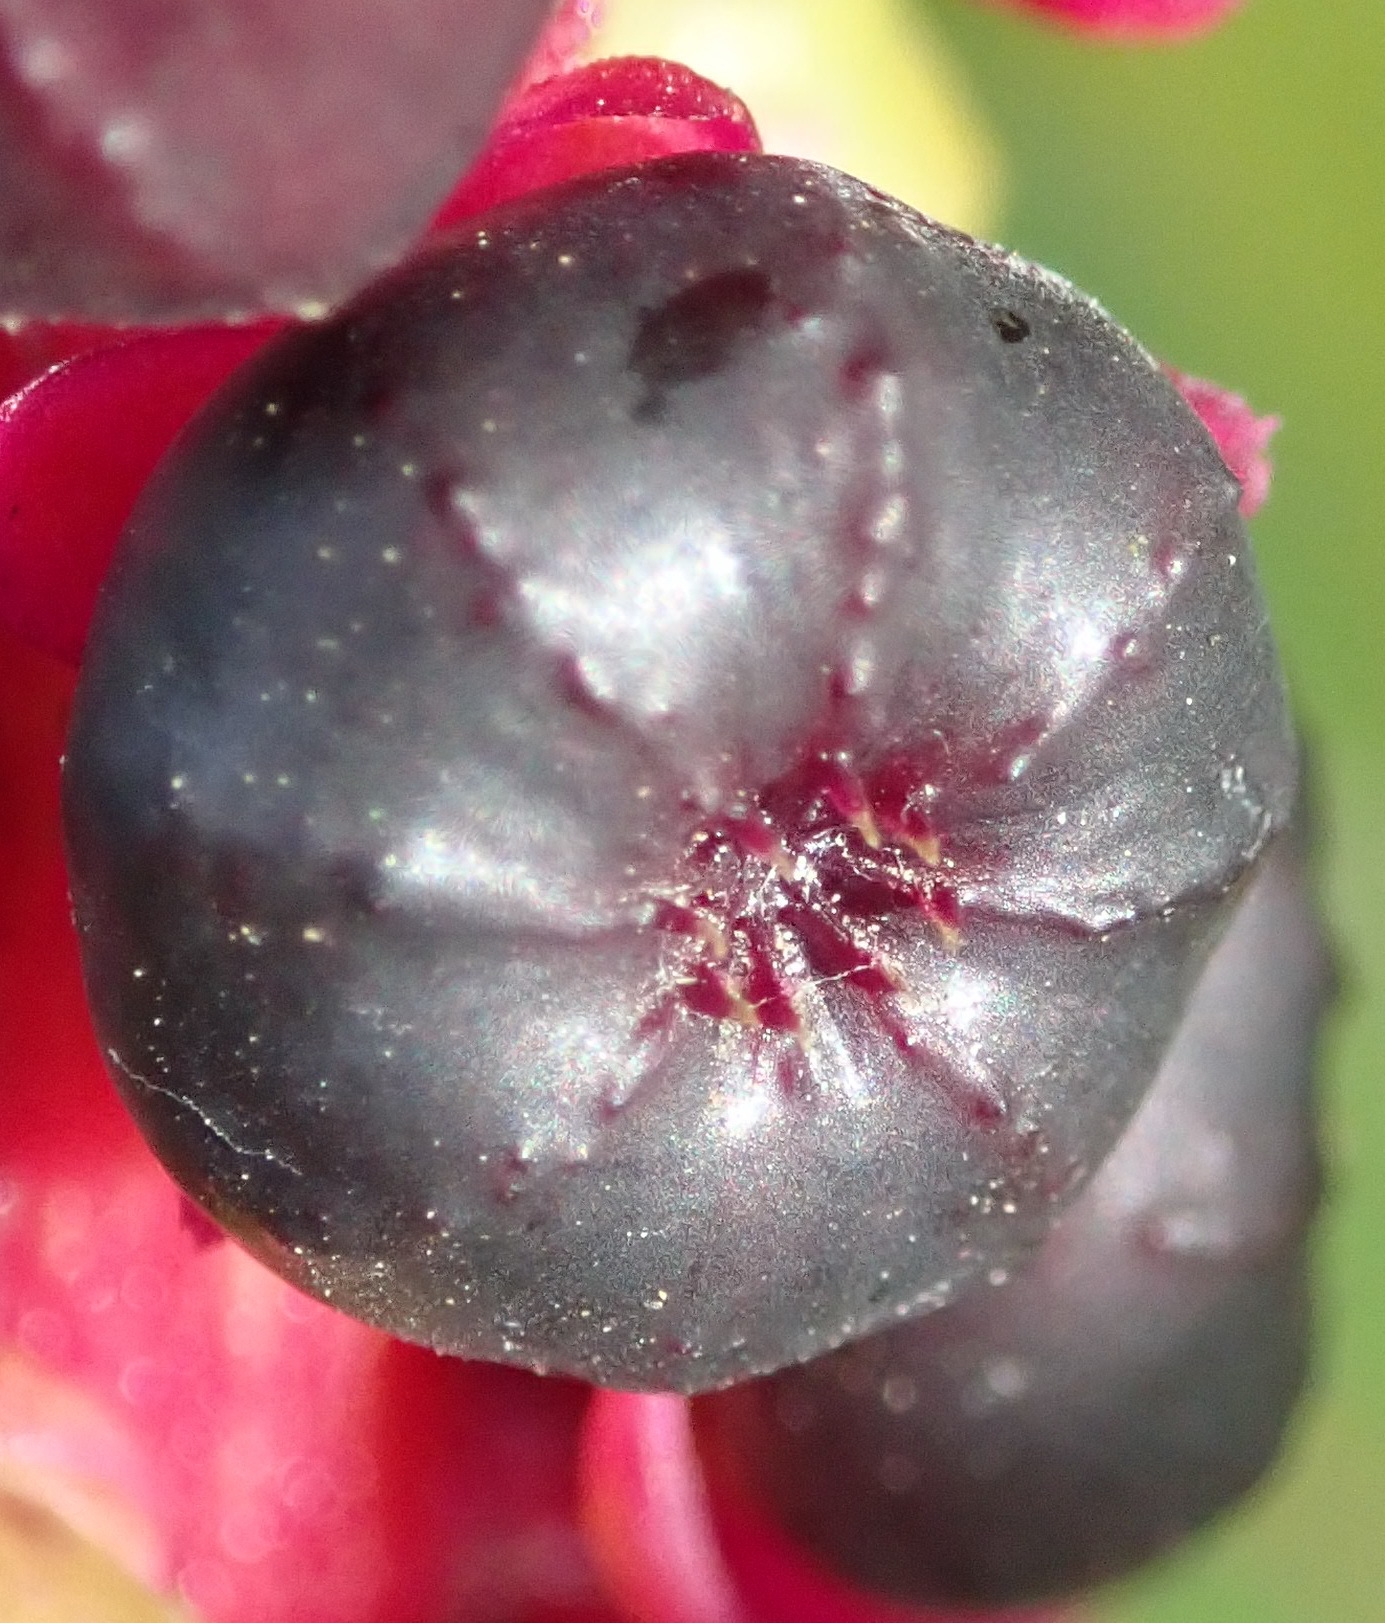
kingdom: Plantae
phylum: Tracheophyta
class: Magnoliopsida
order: Caryophyllales
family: Phytolaccaceae
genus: Phytolacca
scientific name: Phytolacca icosandra
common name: Button pokeweed
